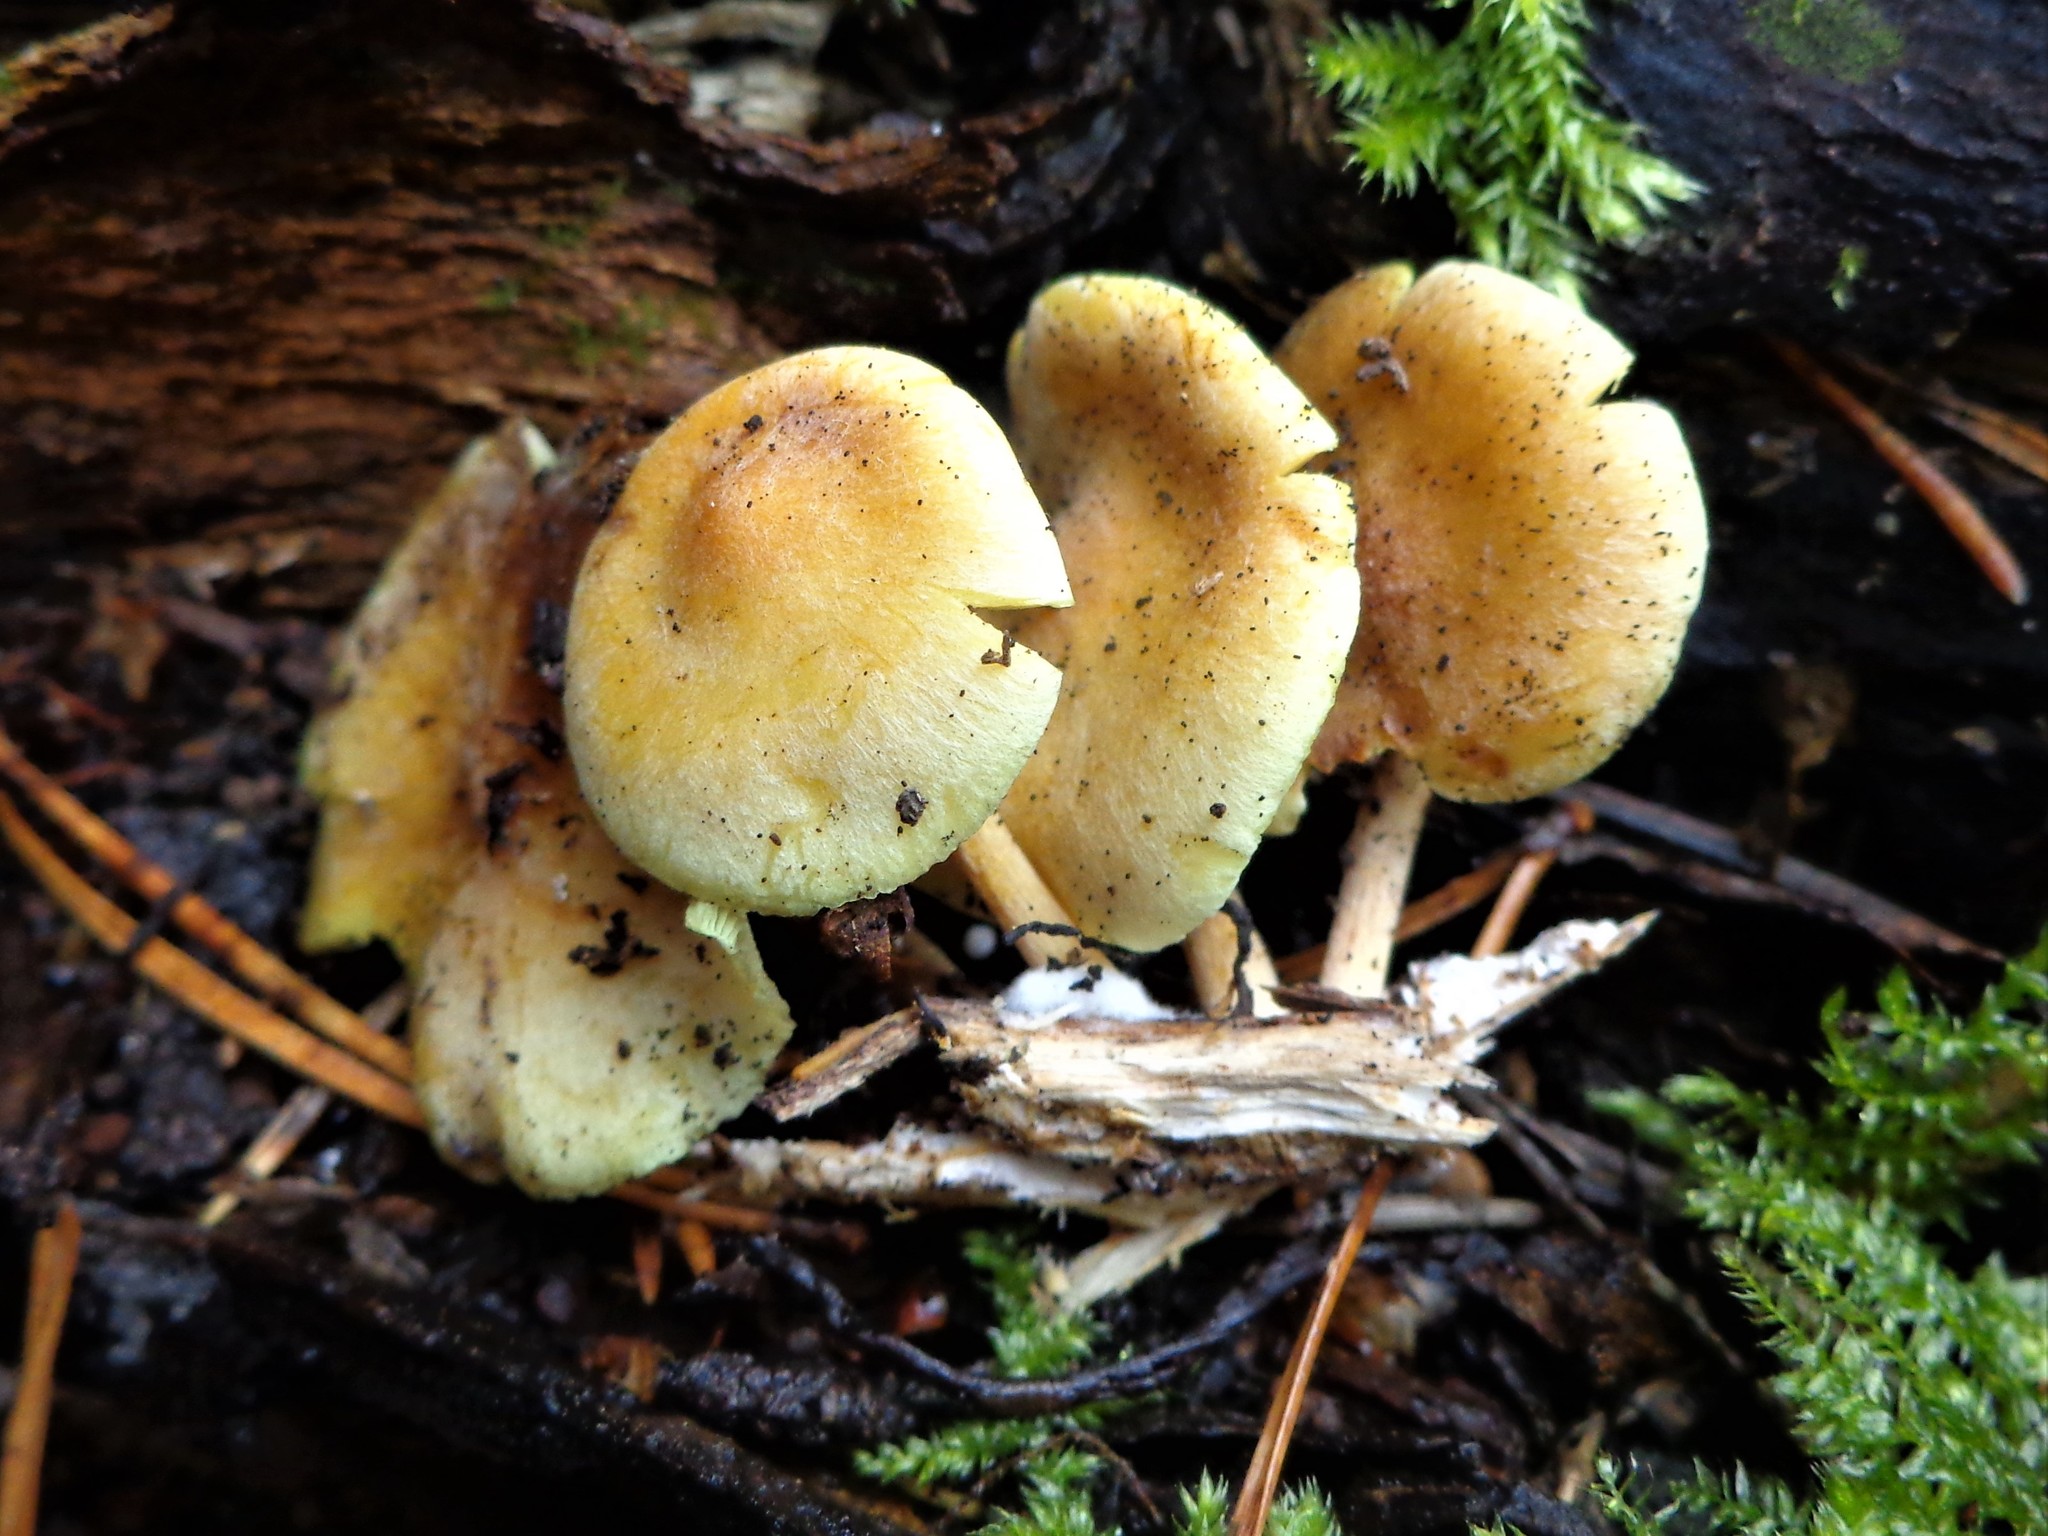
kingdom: Fungi
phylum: Basidiomycota
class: Agaricomycetes
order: Agaricales
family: Strophariaceae
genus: Hypholoma
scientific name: Hypholoma fasciculare
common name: Sulphur tuft
